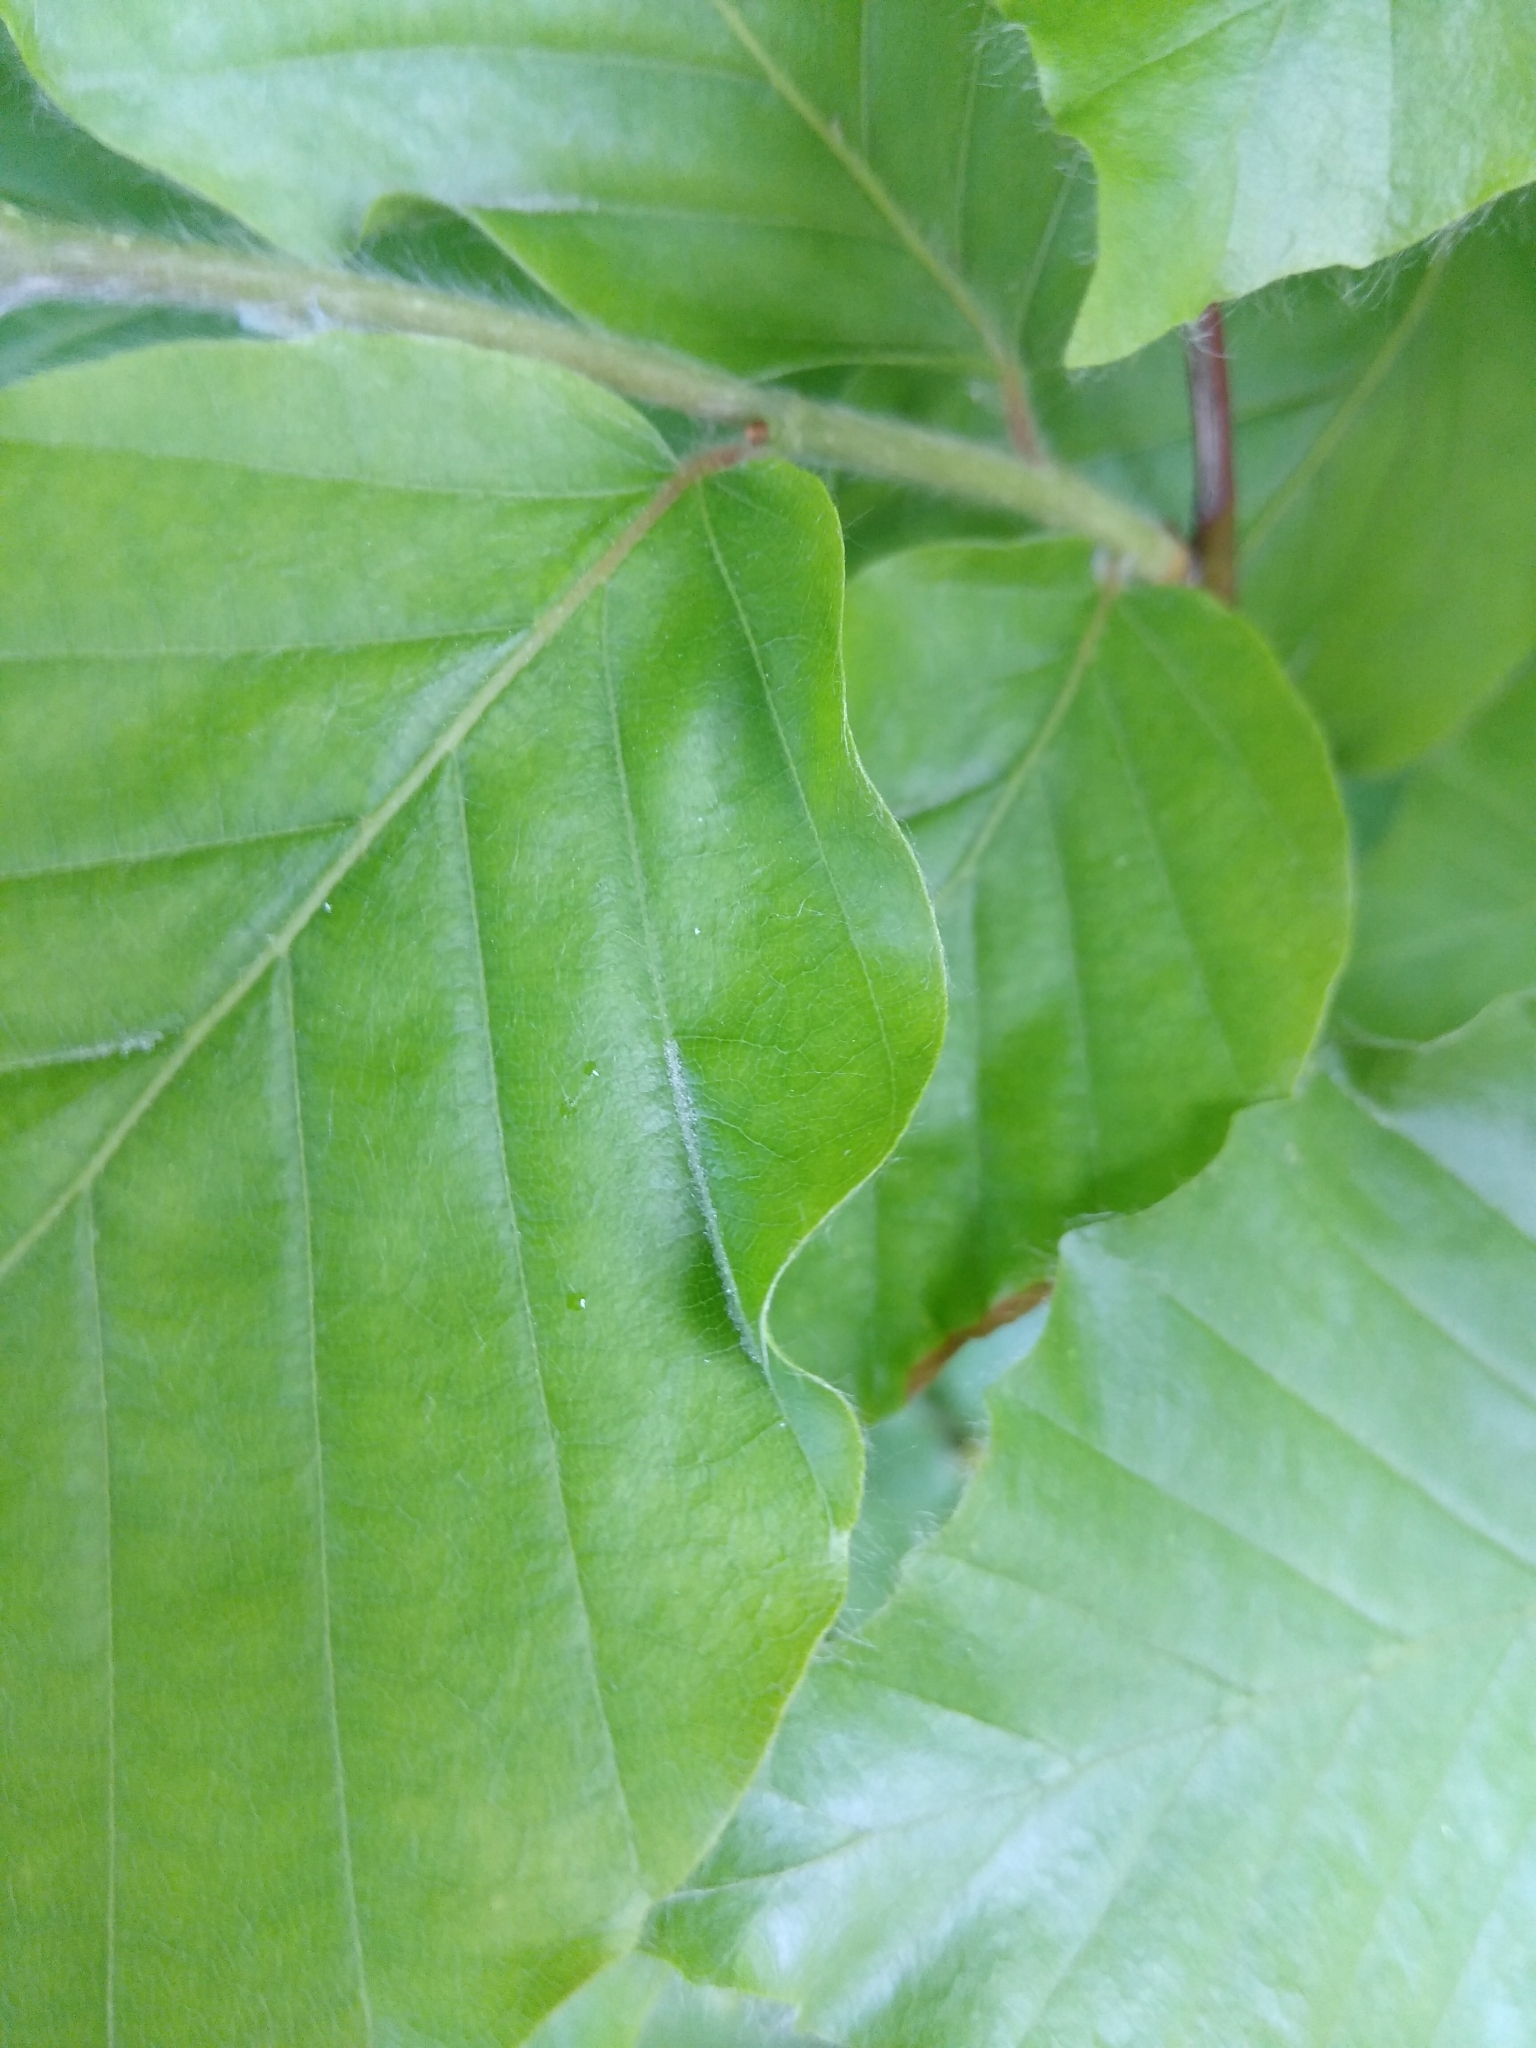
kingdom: Animalia
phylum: Arthropoda
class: Arachnida
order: Trombidiformes
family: Eriophyidae
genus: Aceria
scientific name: Aceria nervisequa
